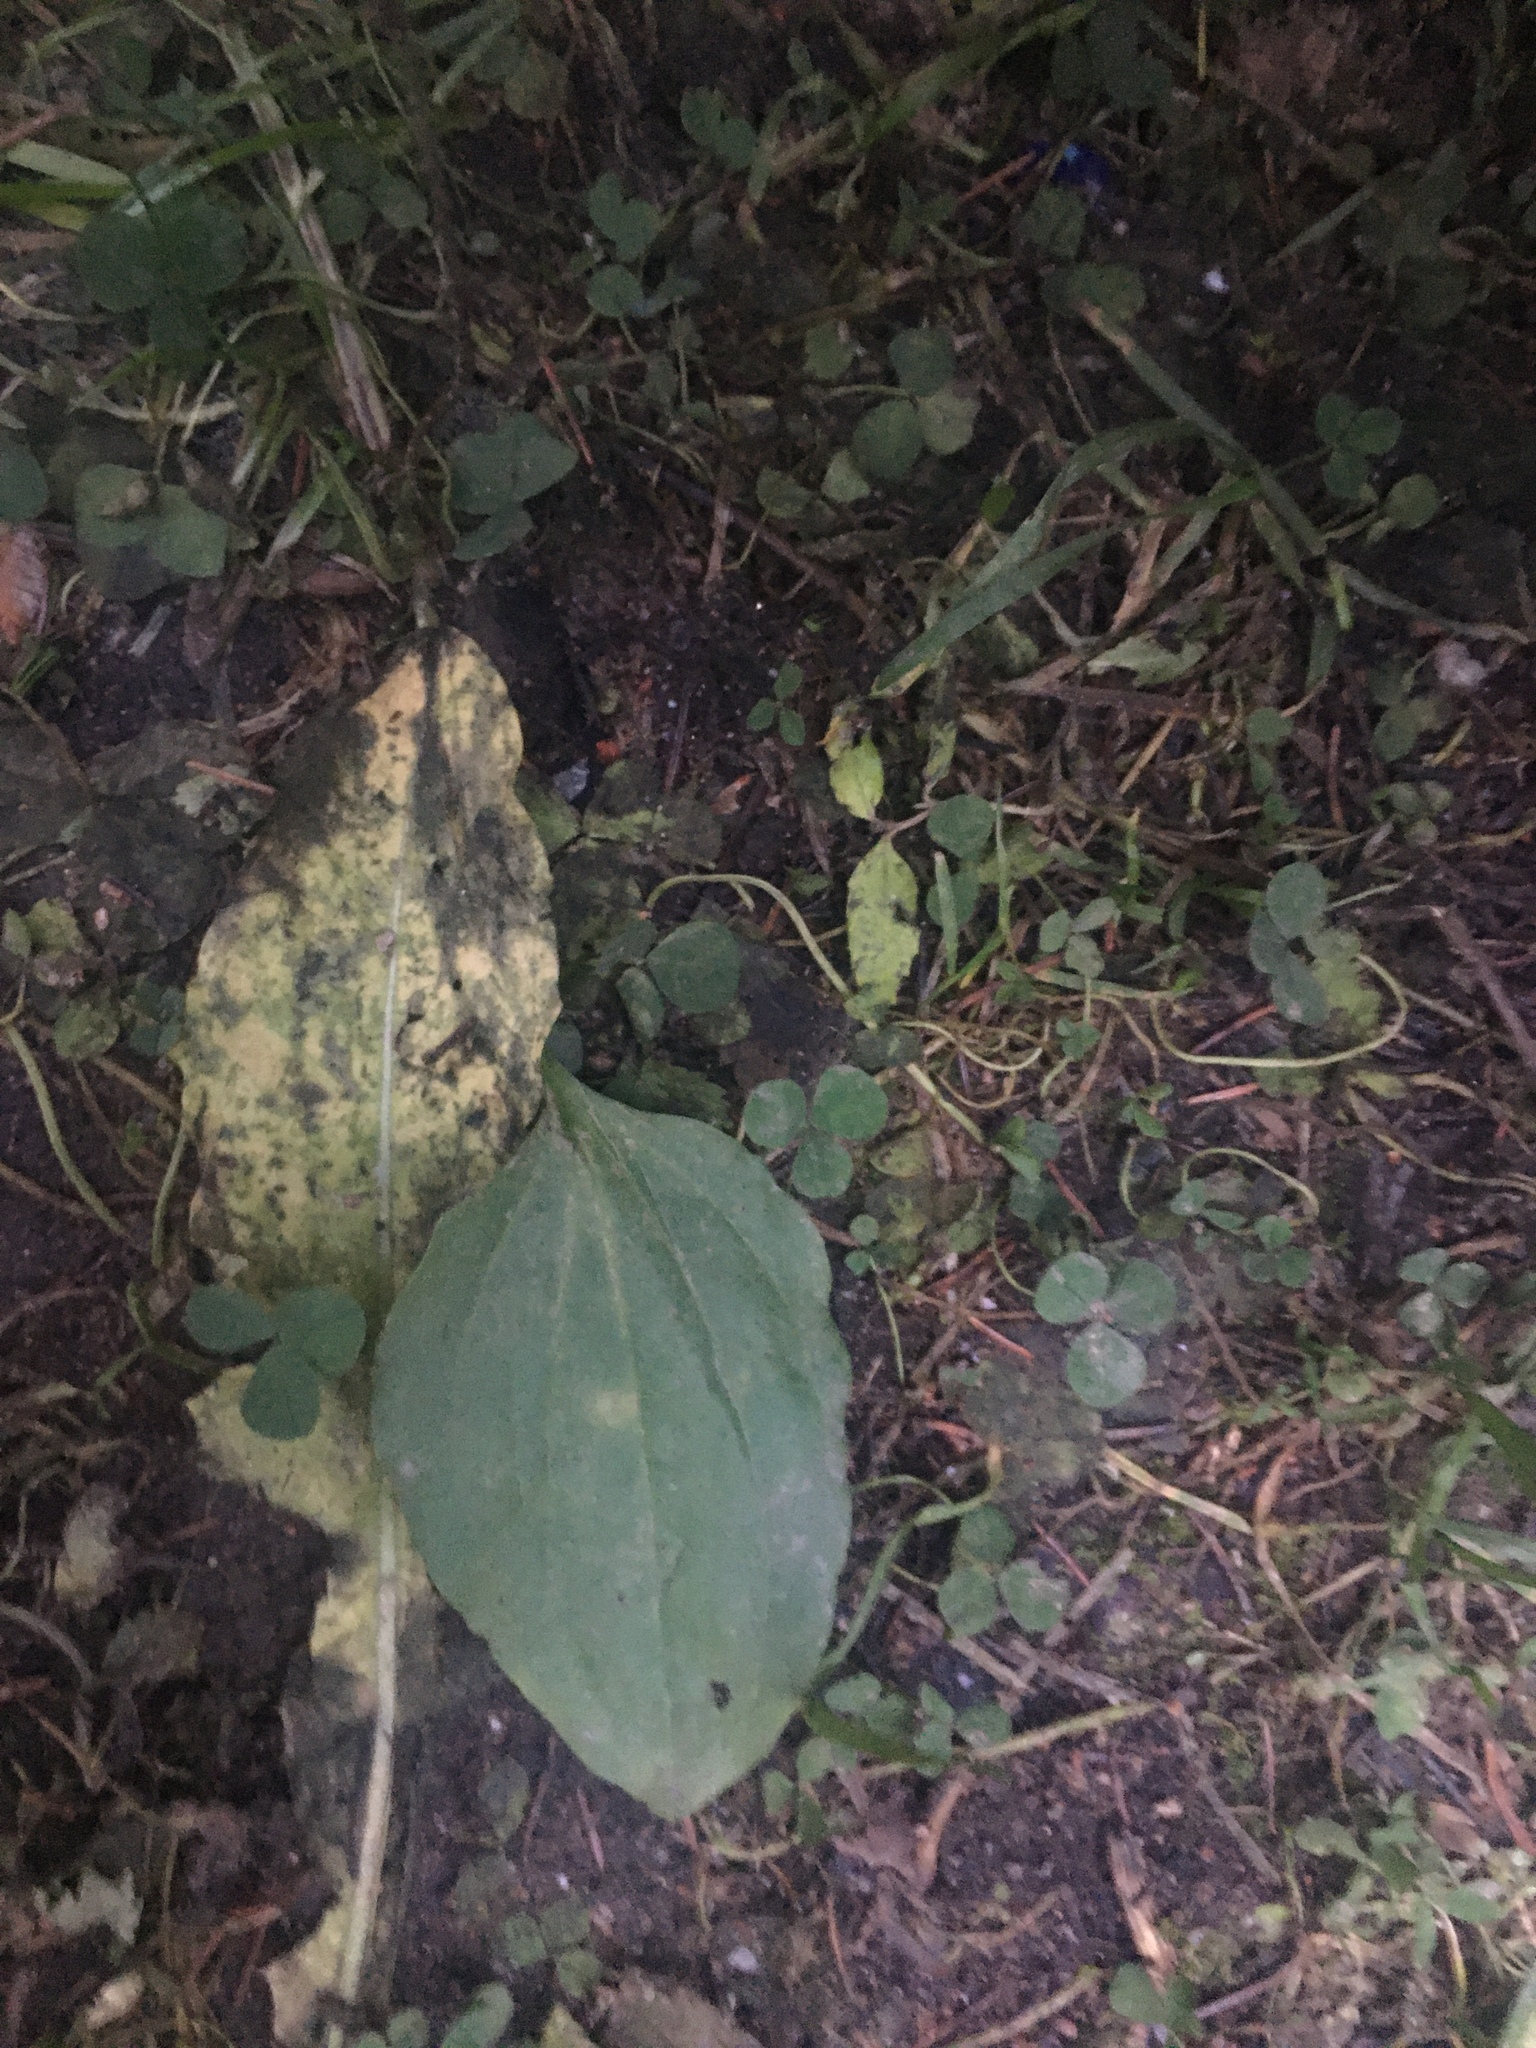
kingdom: Plantae
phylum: Tracheophyta
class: Magnoliopsida
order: Lamiales
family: Plantaginaceae
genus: Plantago
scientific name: Plantago major
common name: Common plantain
